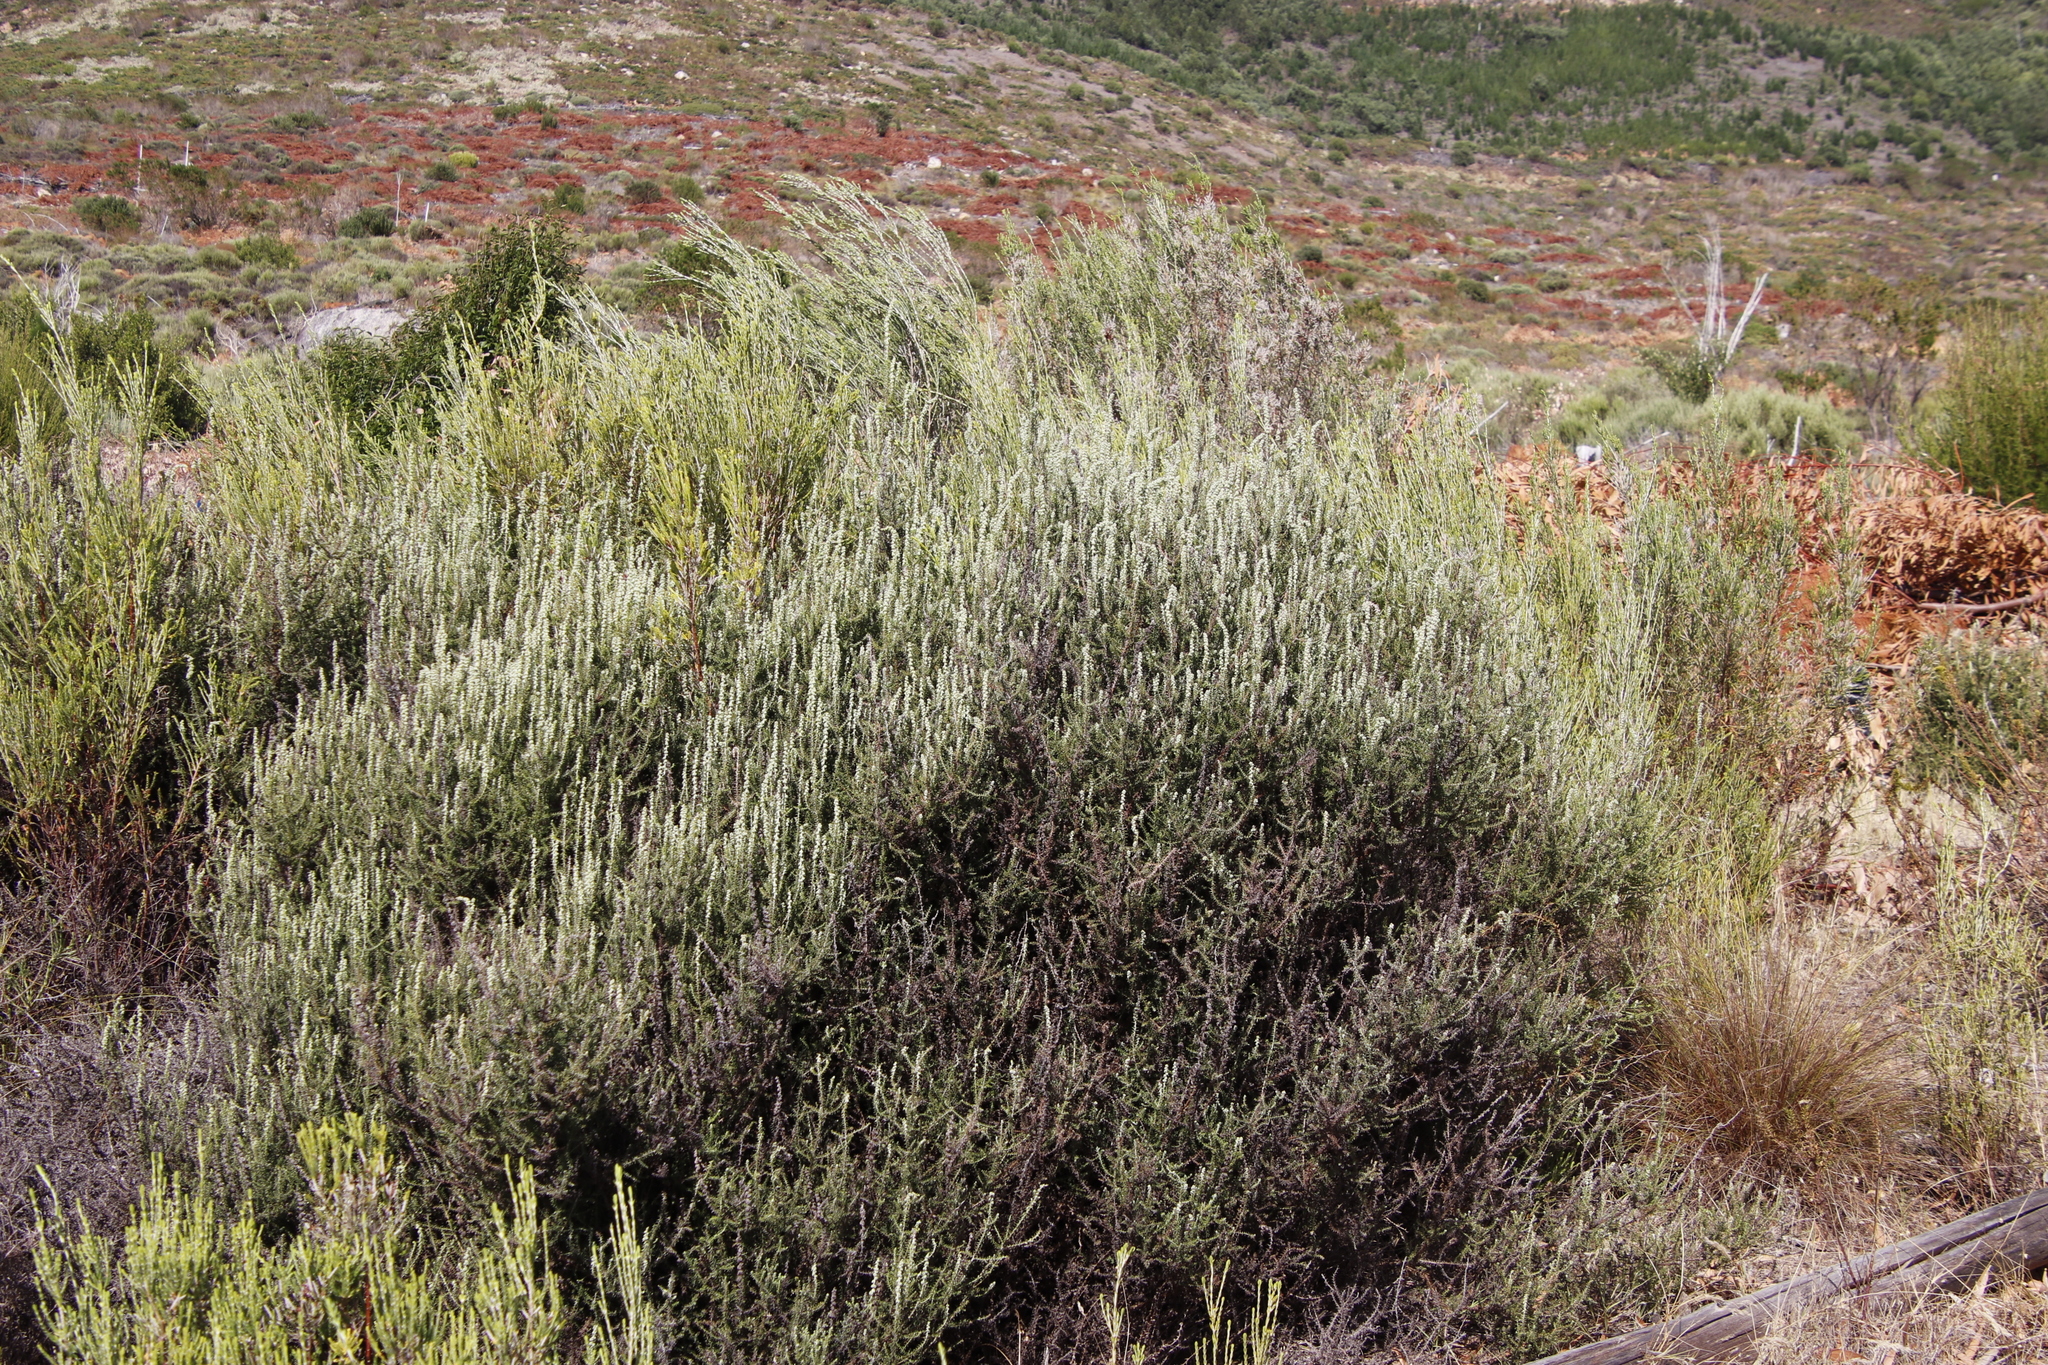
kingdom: Plantae
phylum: Tracheophyta
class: Magnoliopsida
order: Asterales
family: Asteraceae
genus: Seriphium
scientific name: Seriphium cinereum
